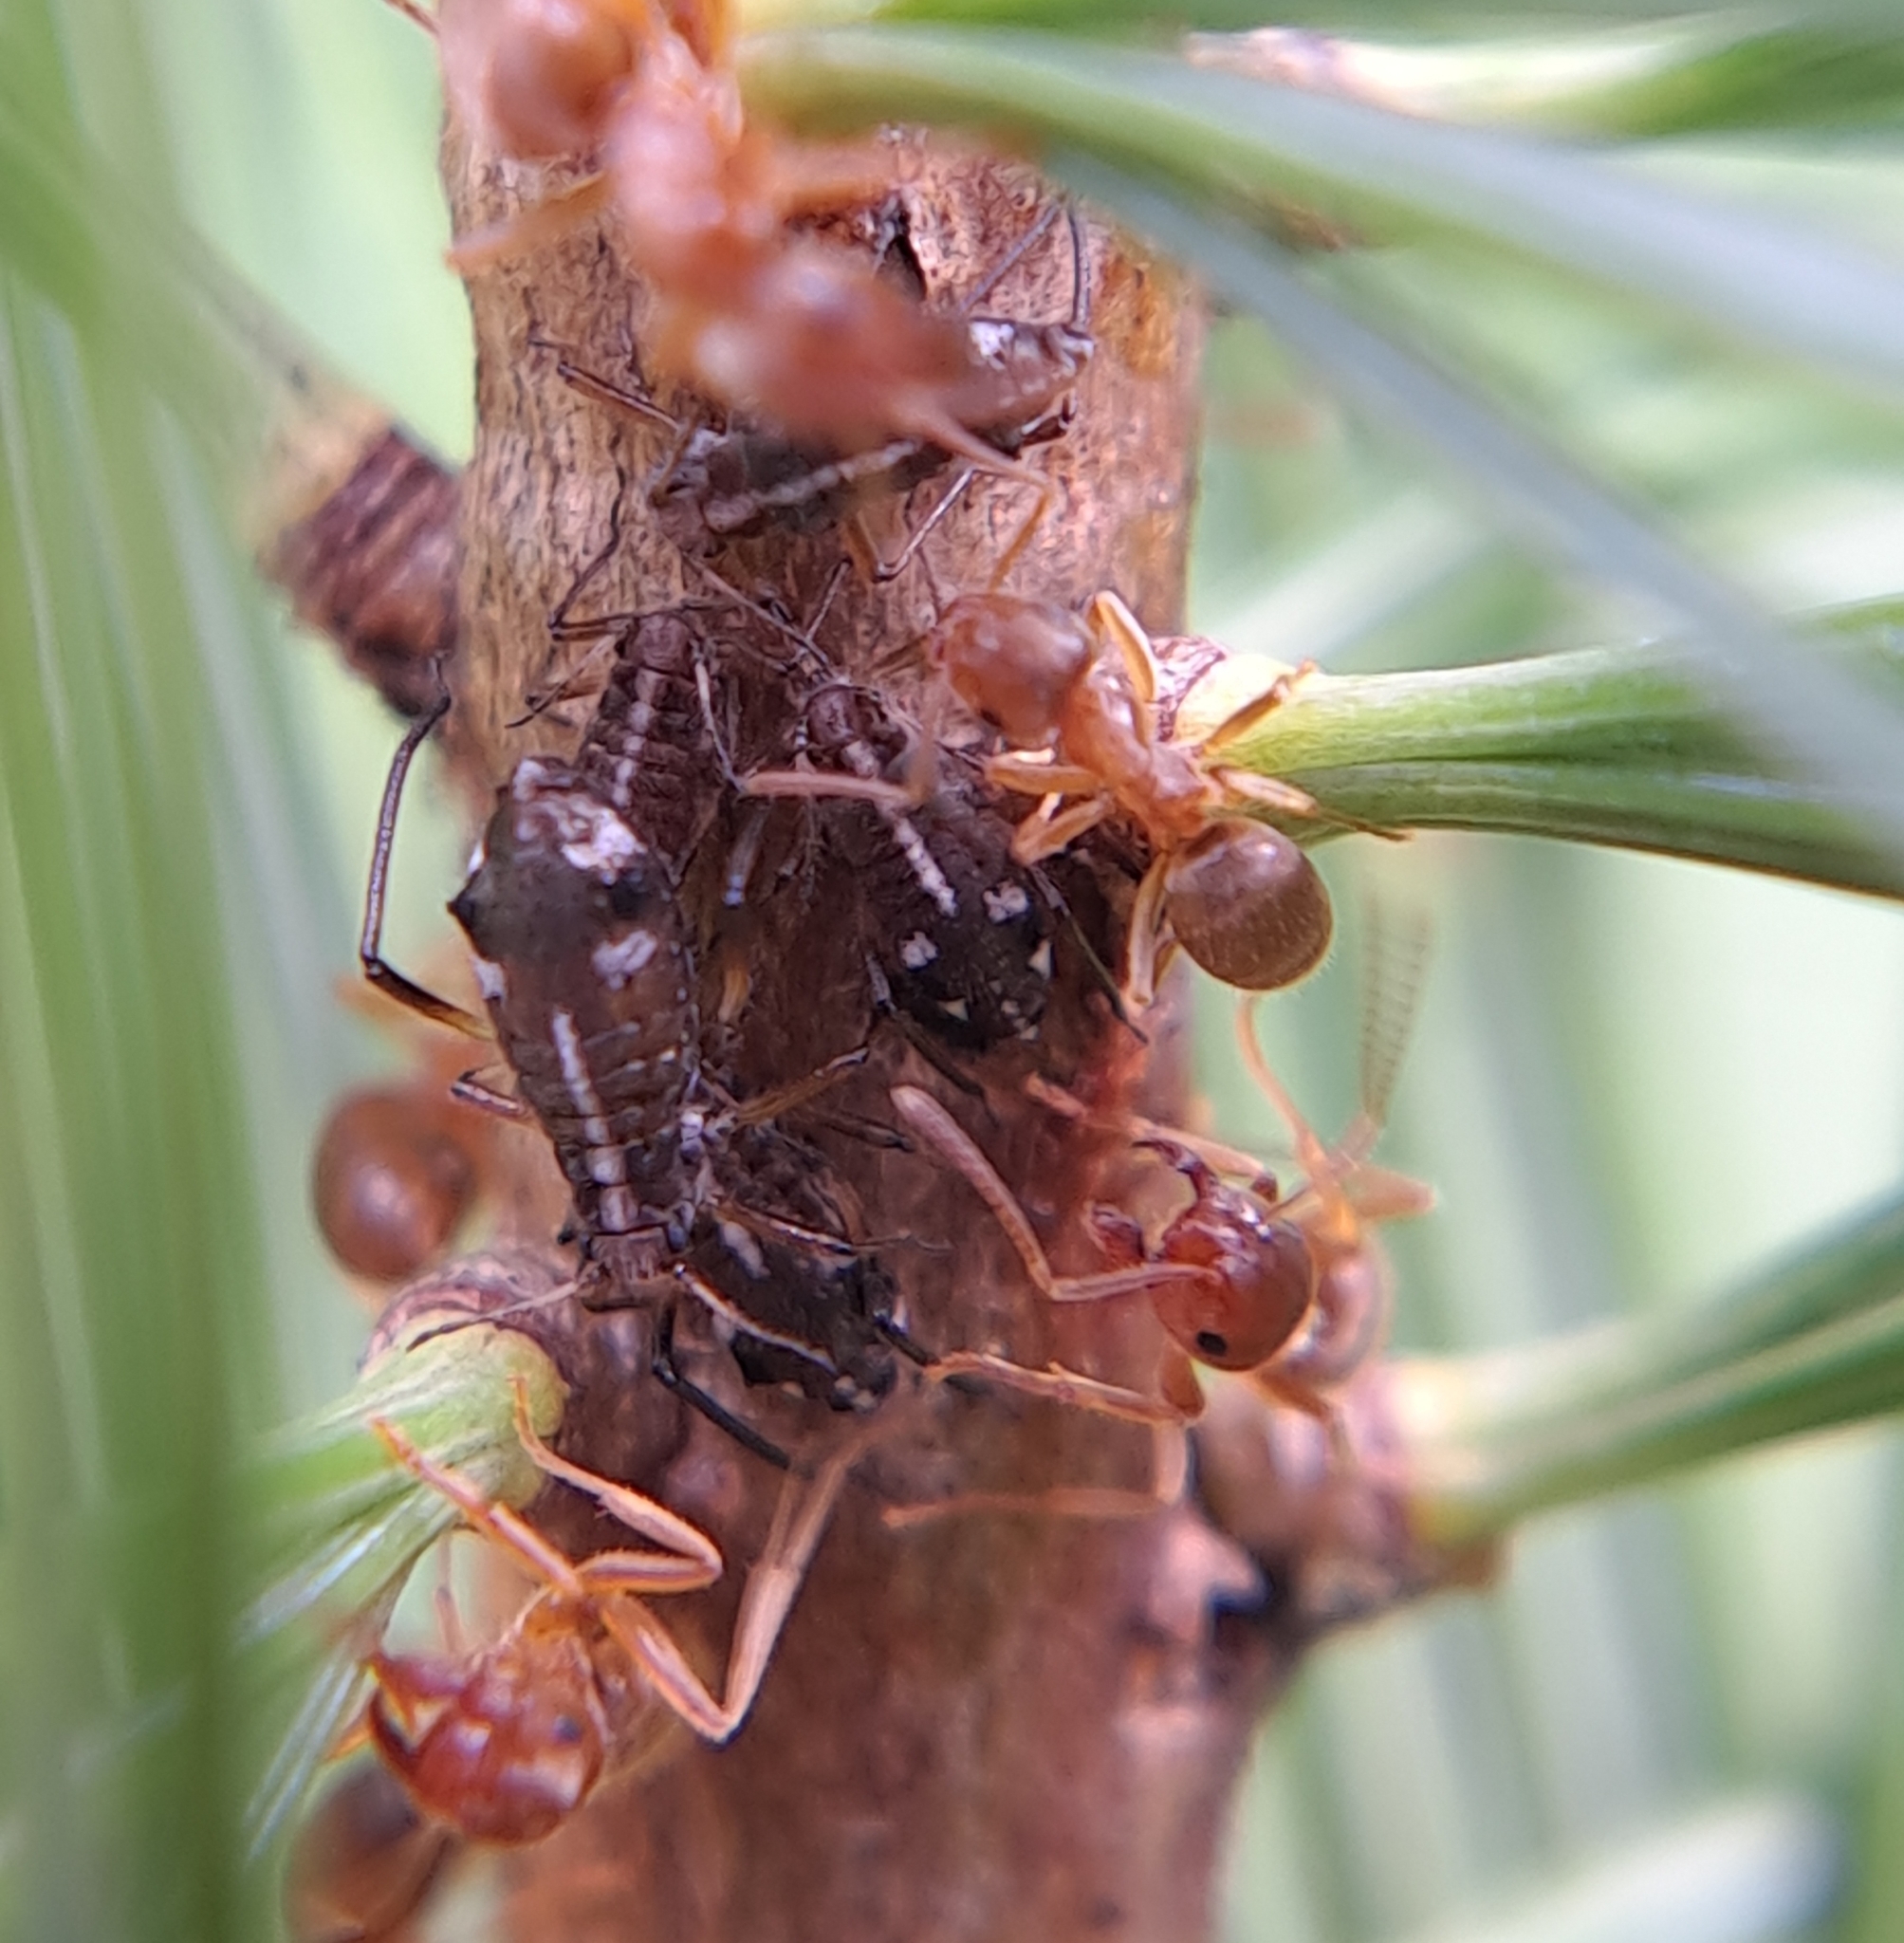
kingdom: Animalia
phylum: Arthropoda
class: Insecta
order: Hemiptera
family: Aphididae
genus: Cinara
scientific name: Cinara strobi
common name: White pine aphid
